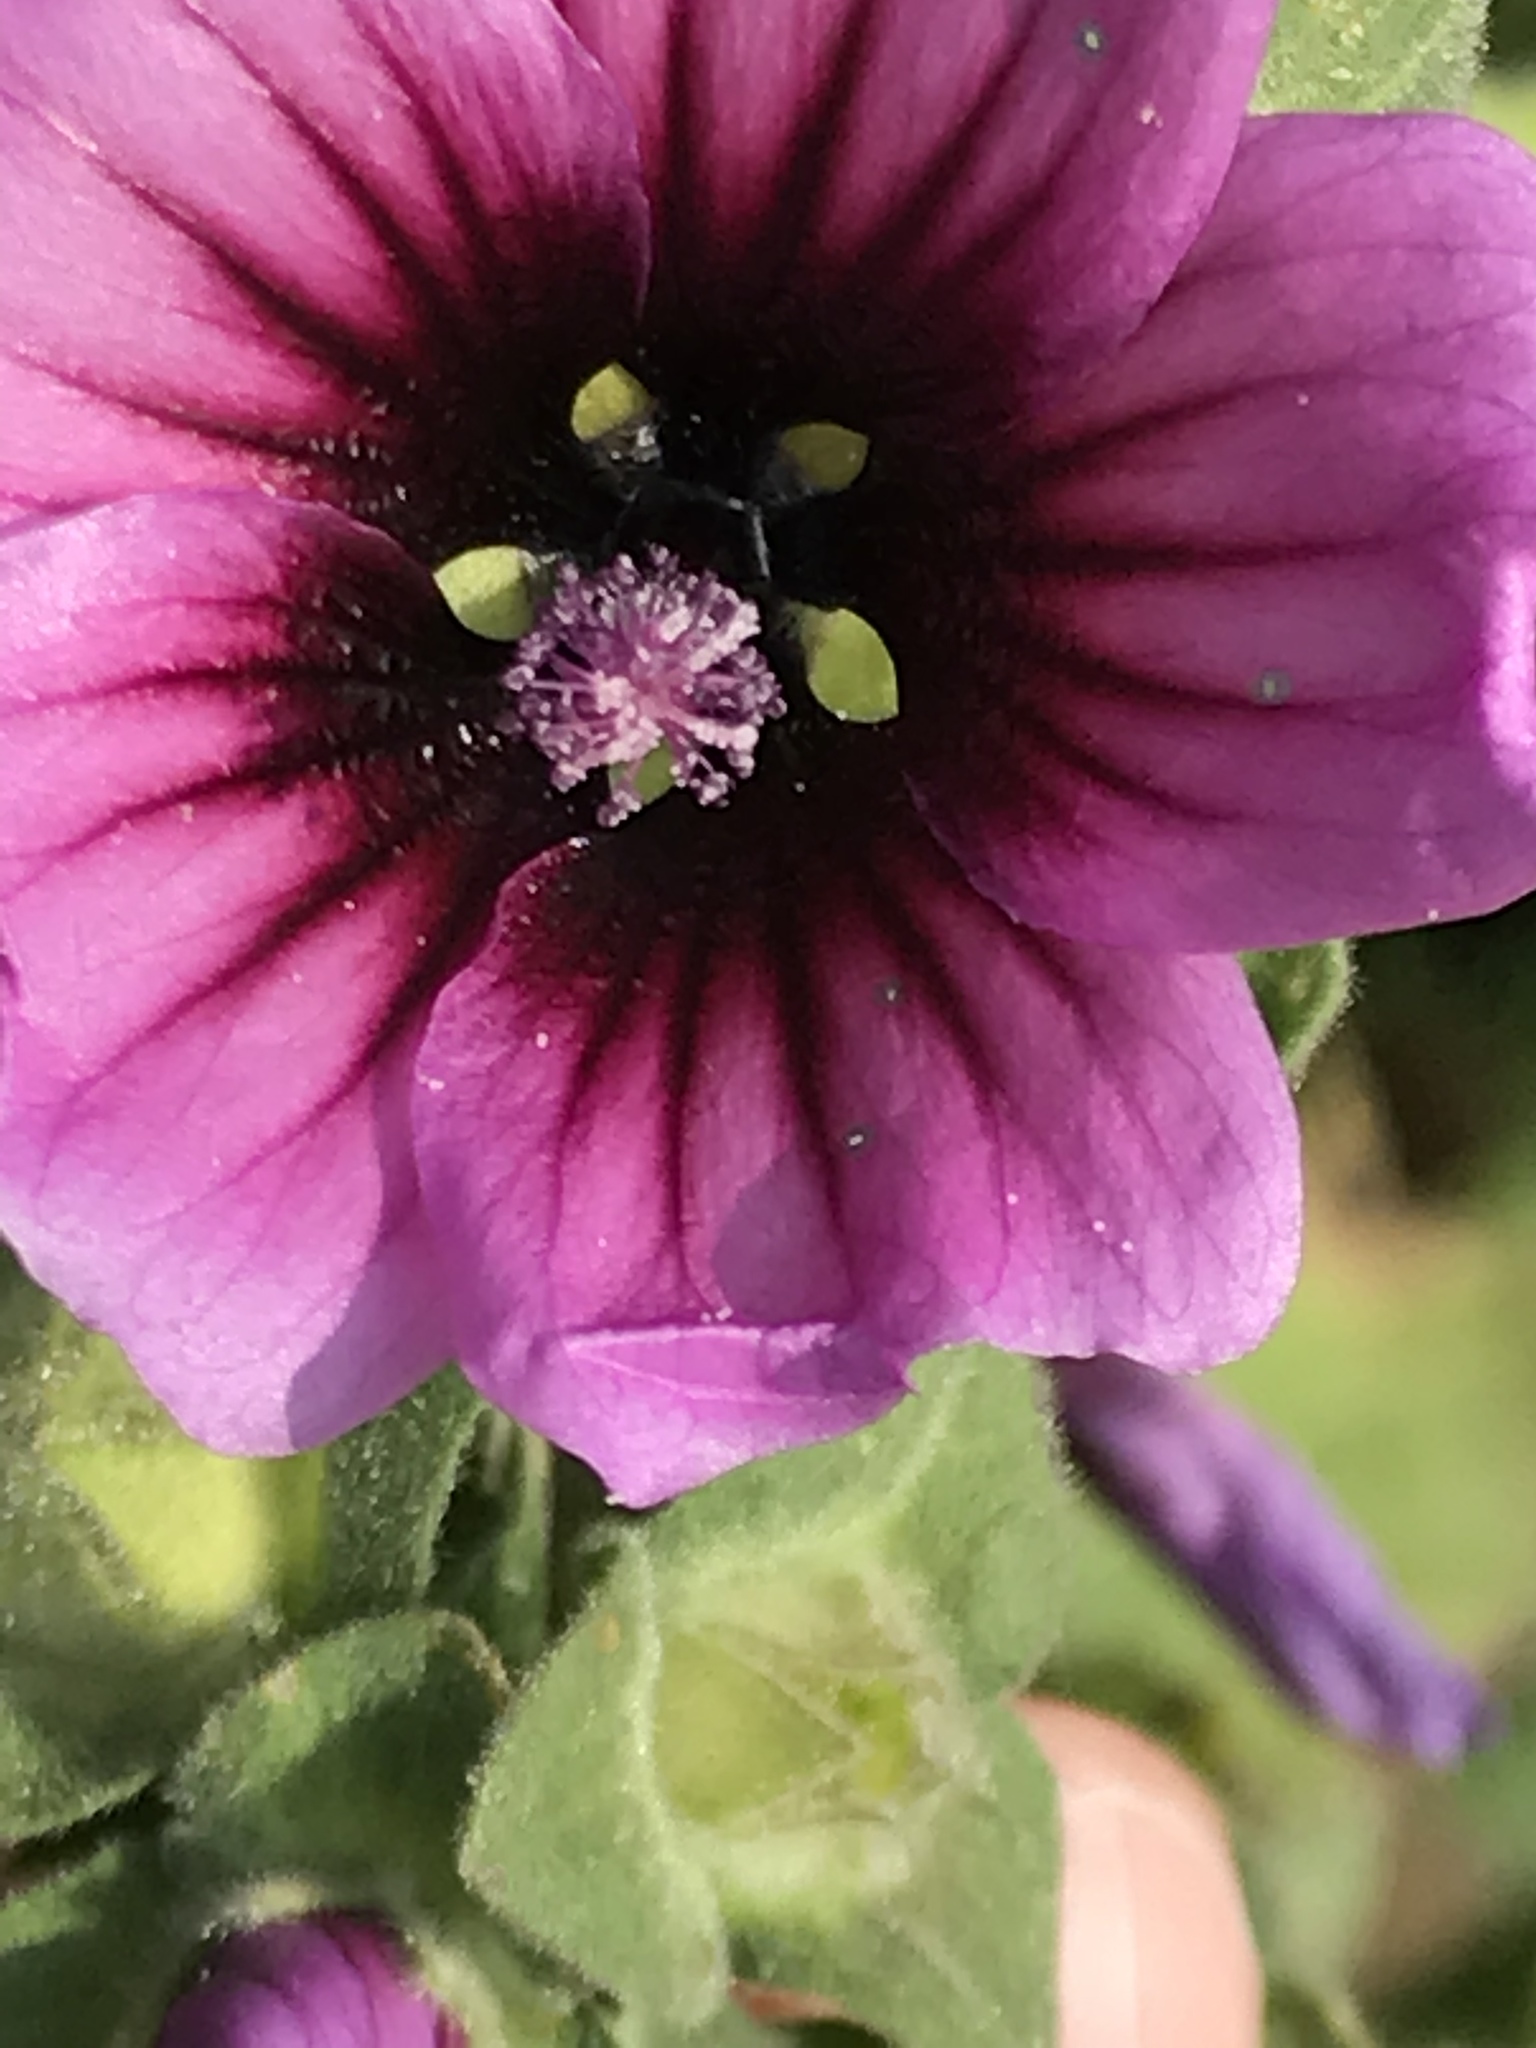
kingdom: Plantae
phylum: Tracheophyta
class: Magnoliopsida
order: Malvales
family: Malvaceae
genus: Malva
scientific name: Malva arborea
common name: Tree mallow
